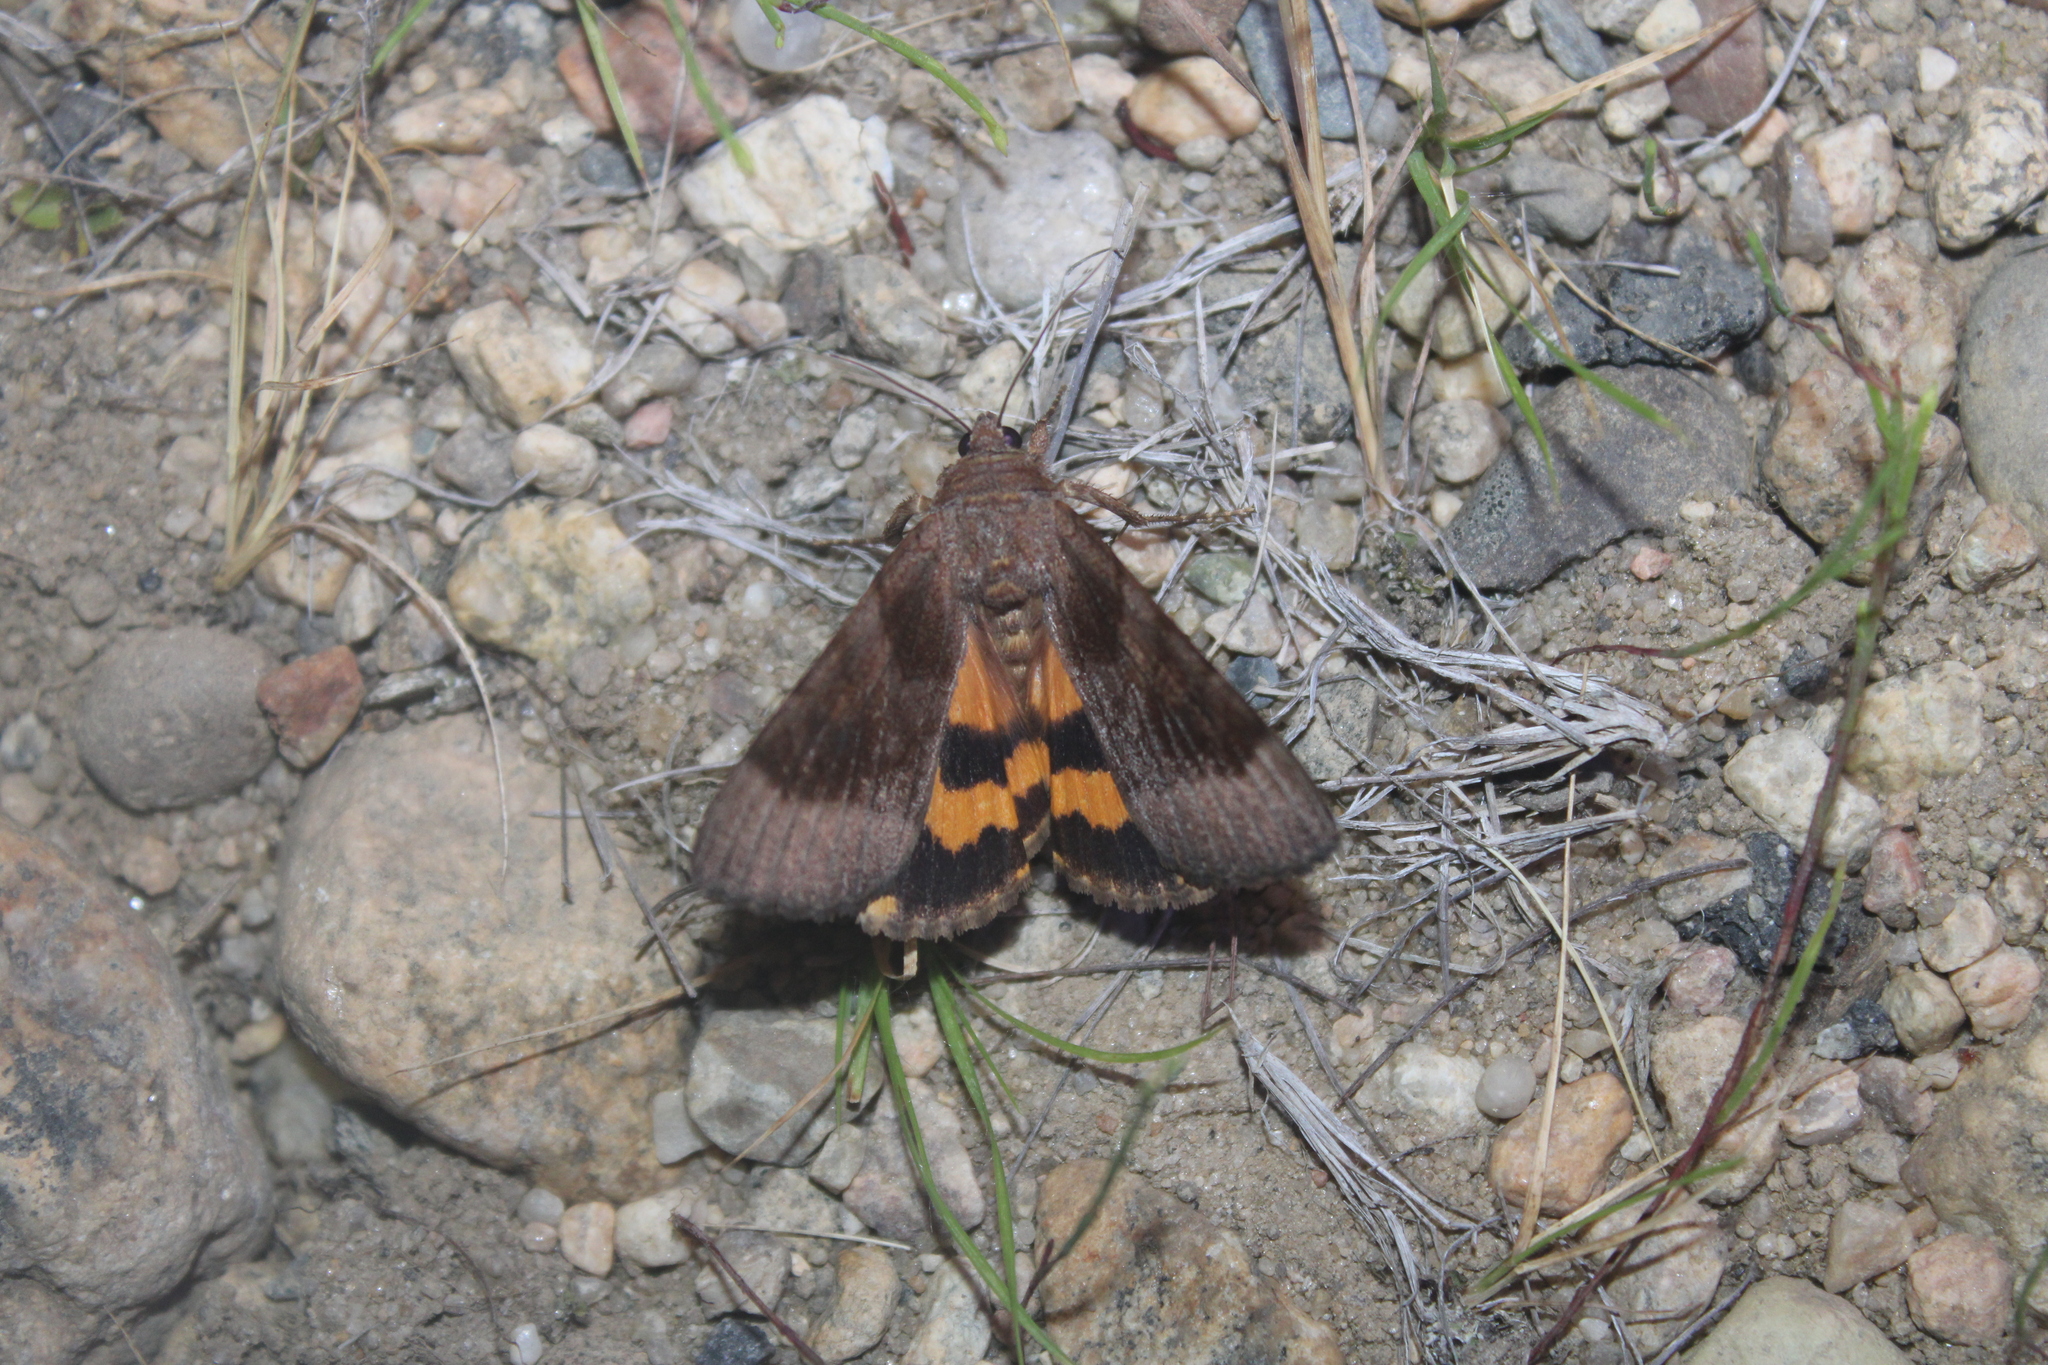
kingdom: Animalia
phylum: Arthropoda
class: Insecta
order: Lepidoptera
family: Erebidae
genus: Catocala
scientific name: Catocala badia
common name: Bay underwing
